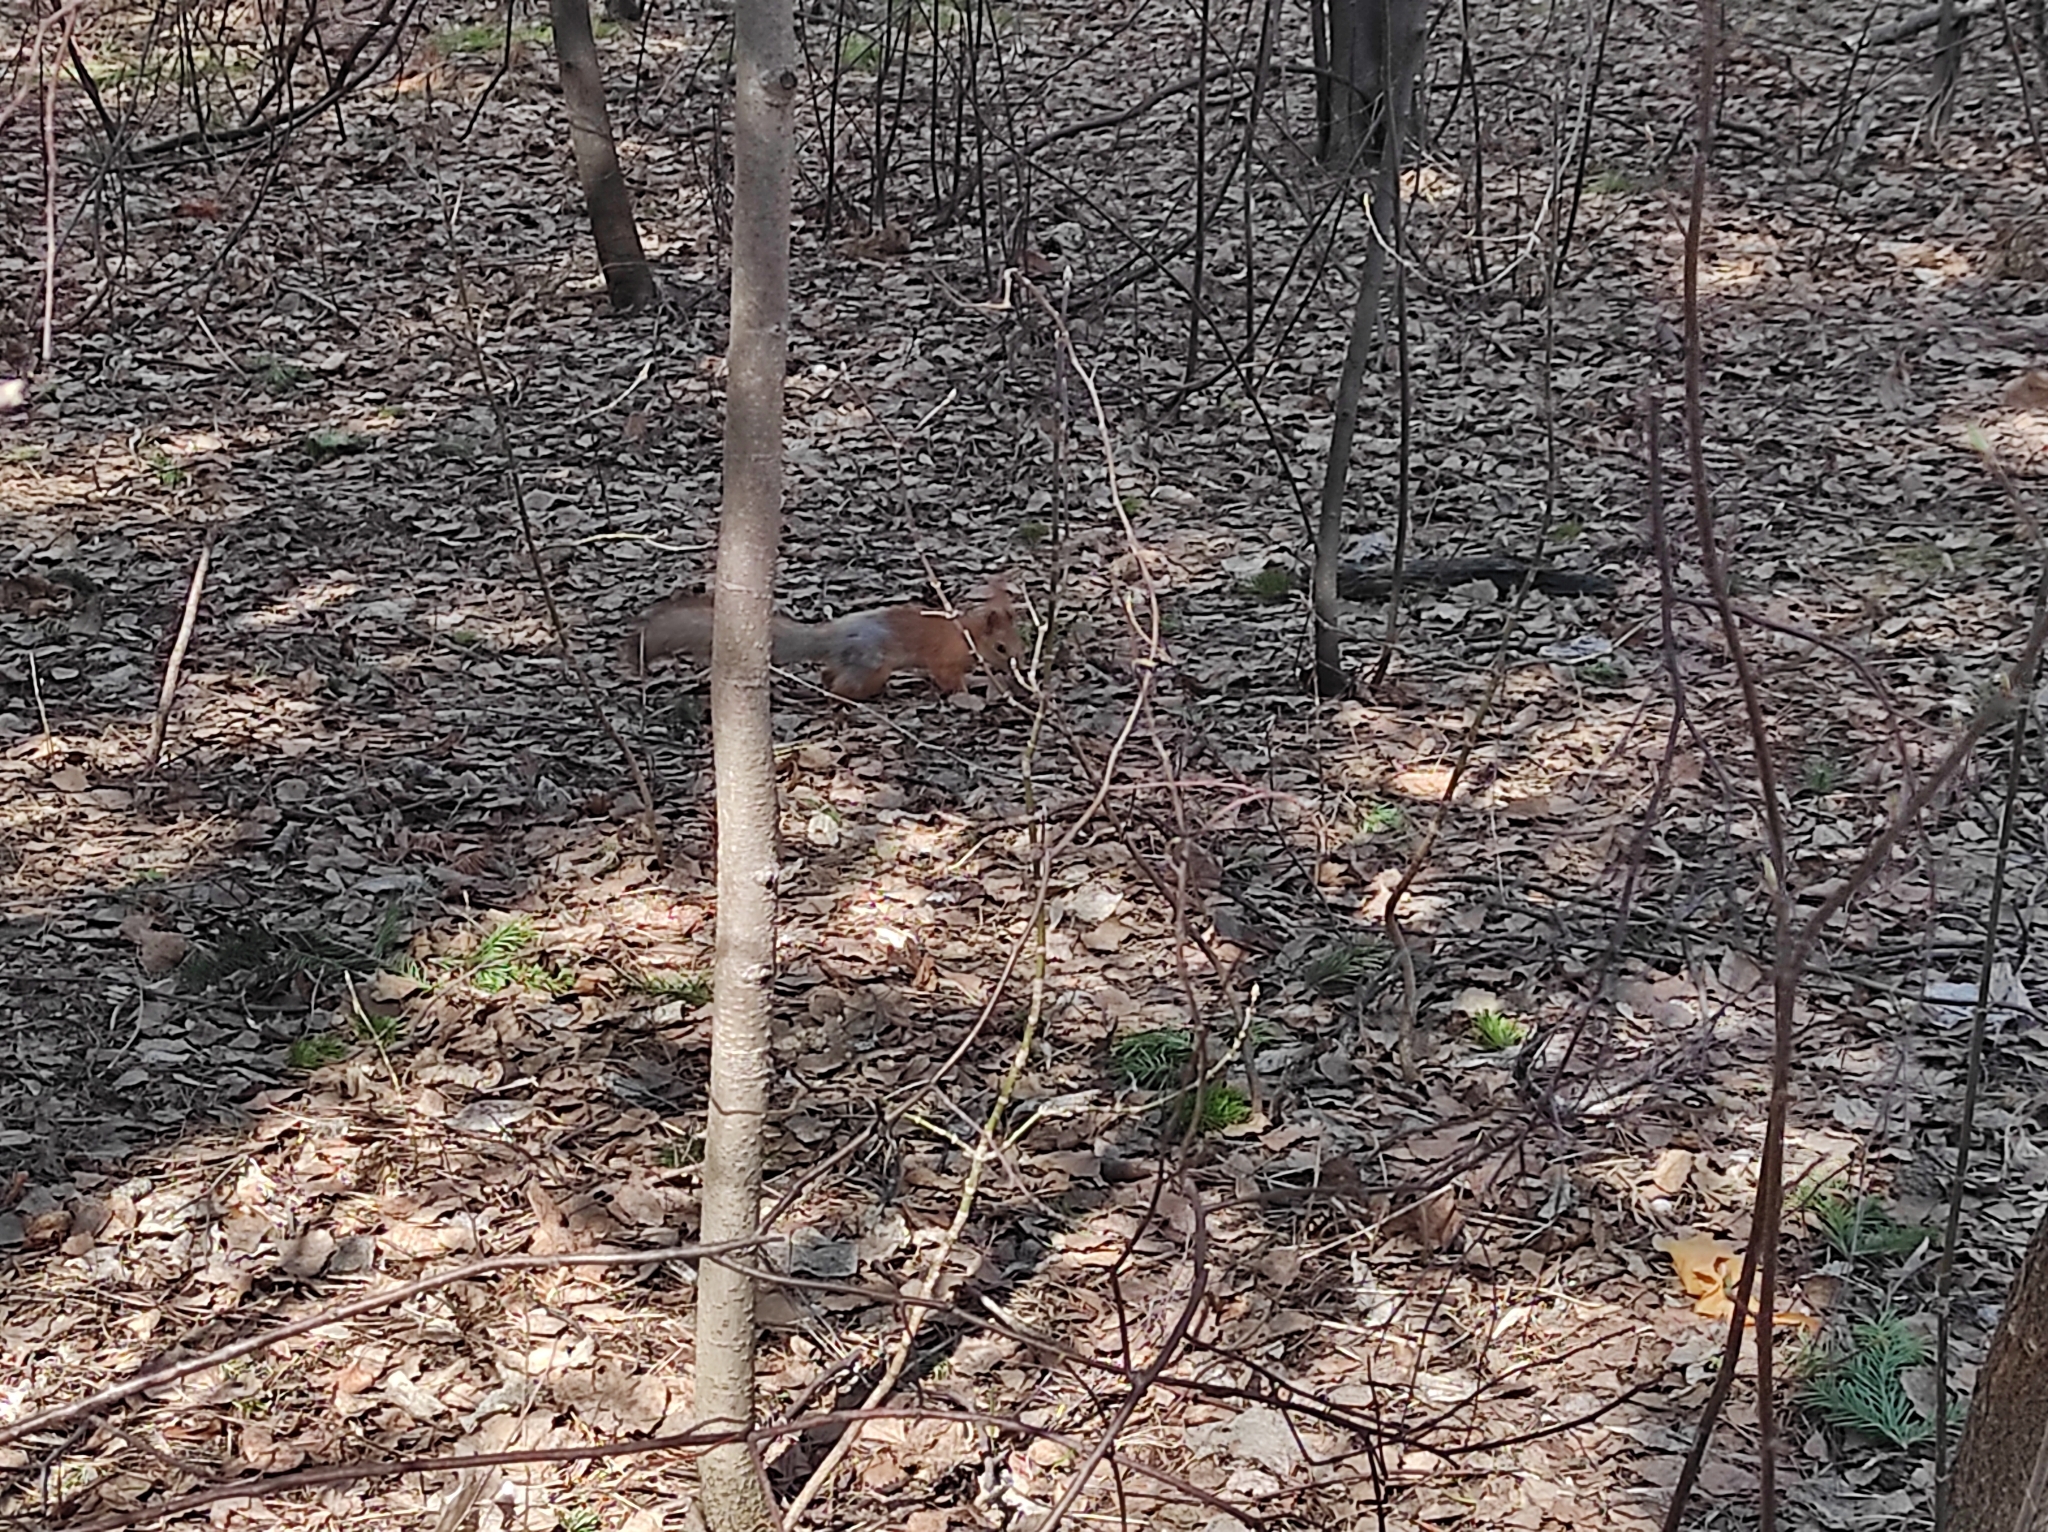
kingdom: Animalia
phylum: Chordata
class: Mammalia
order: Rodentia
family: Sciuridae
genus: Sciurus
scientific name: Sciurus vulgaris
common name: Eurasian red squirrel
